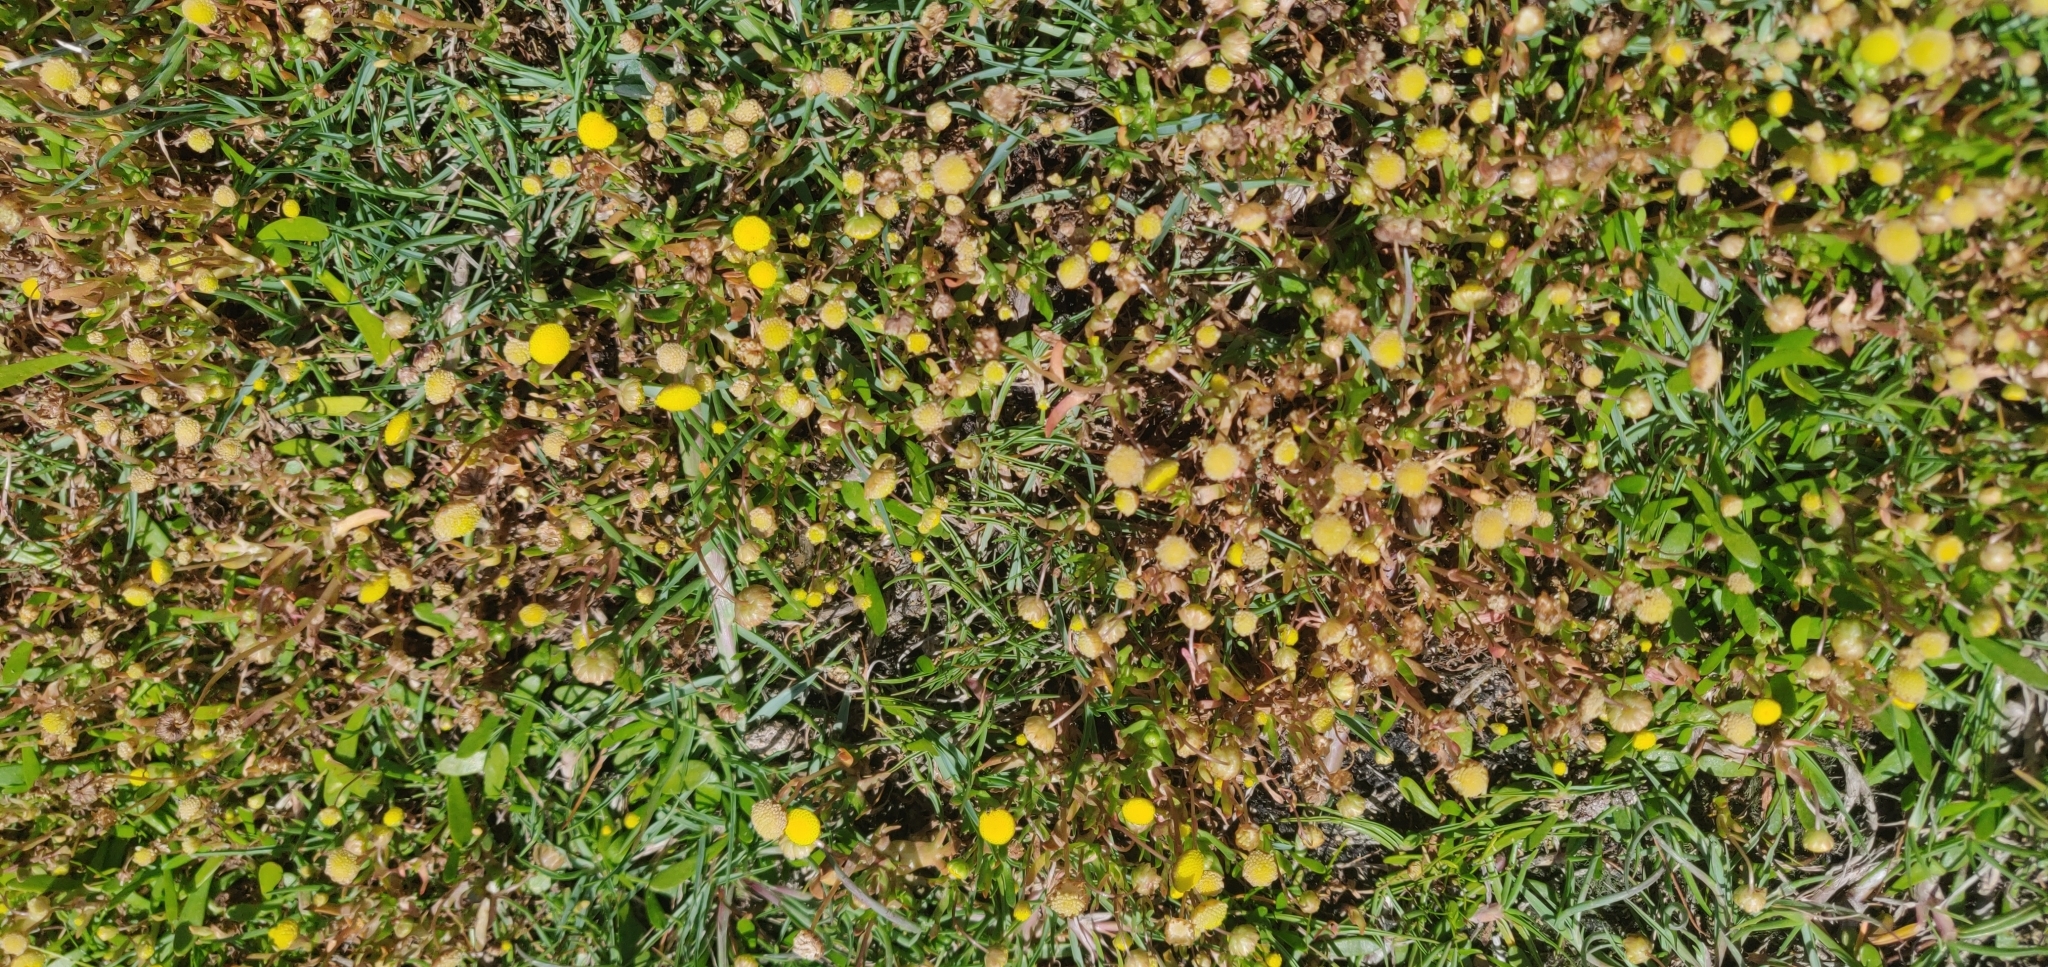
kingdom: Plantae
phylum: Tracheophyta
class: Magnoliopsida
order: Asterales
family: Asteraceae
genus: Cotula
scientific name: Cotula coronopifolia
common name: Buttonweed
